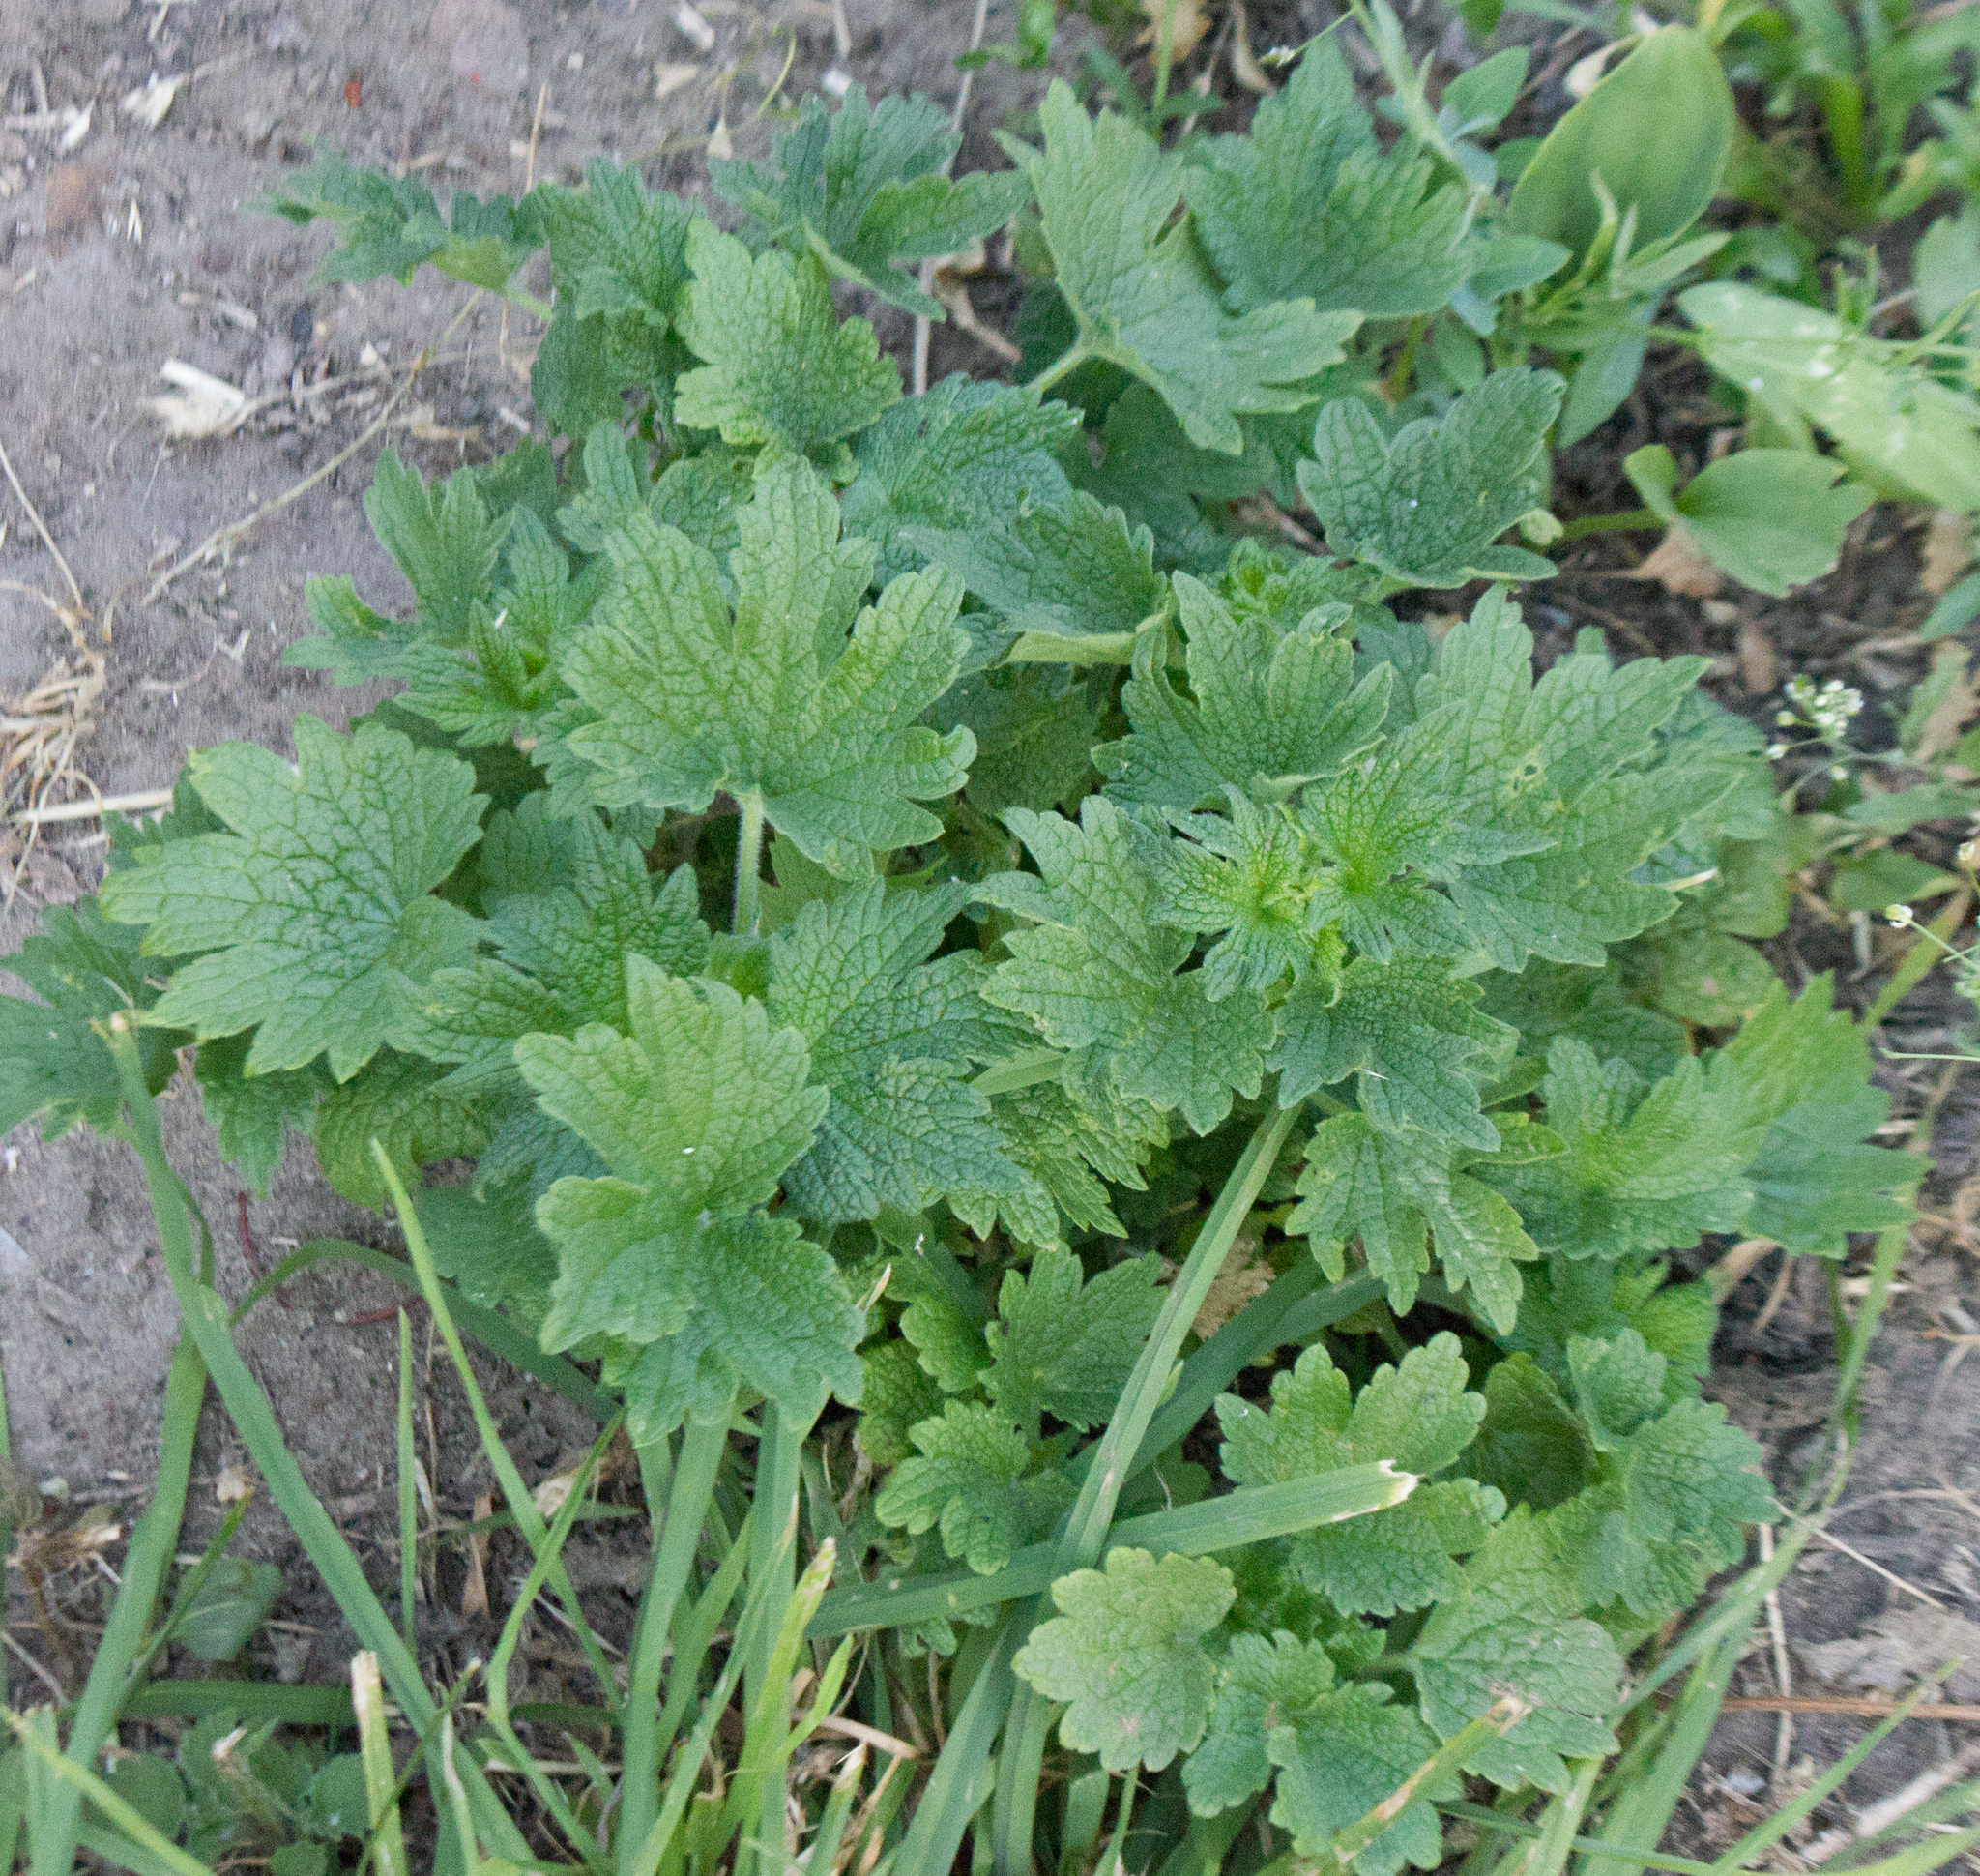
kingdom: Plantae
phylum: Tracheophyta
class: Magnoliopsida
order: Lamiales
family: Lamiaceae
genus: Leonurus
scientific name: Leonurus quinquelobatus
